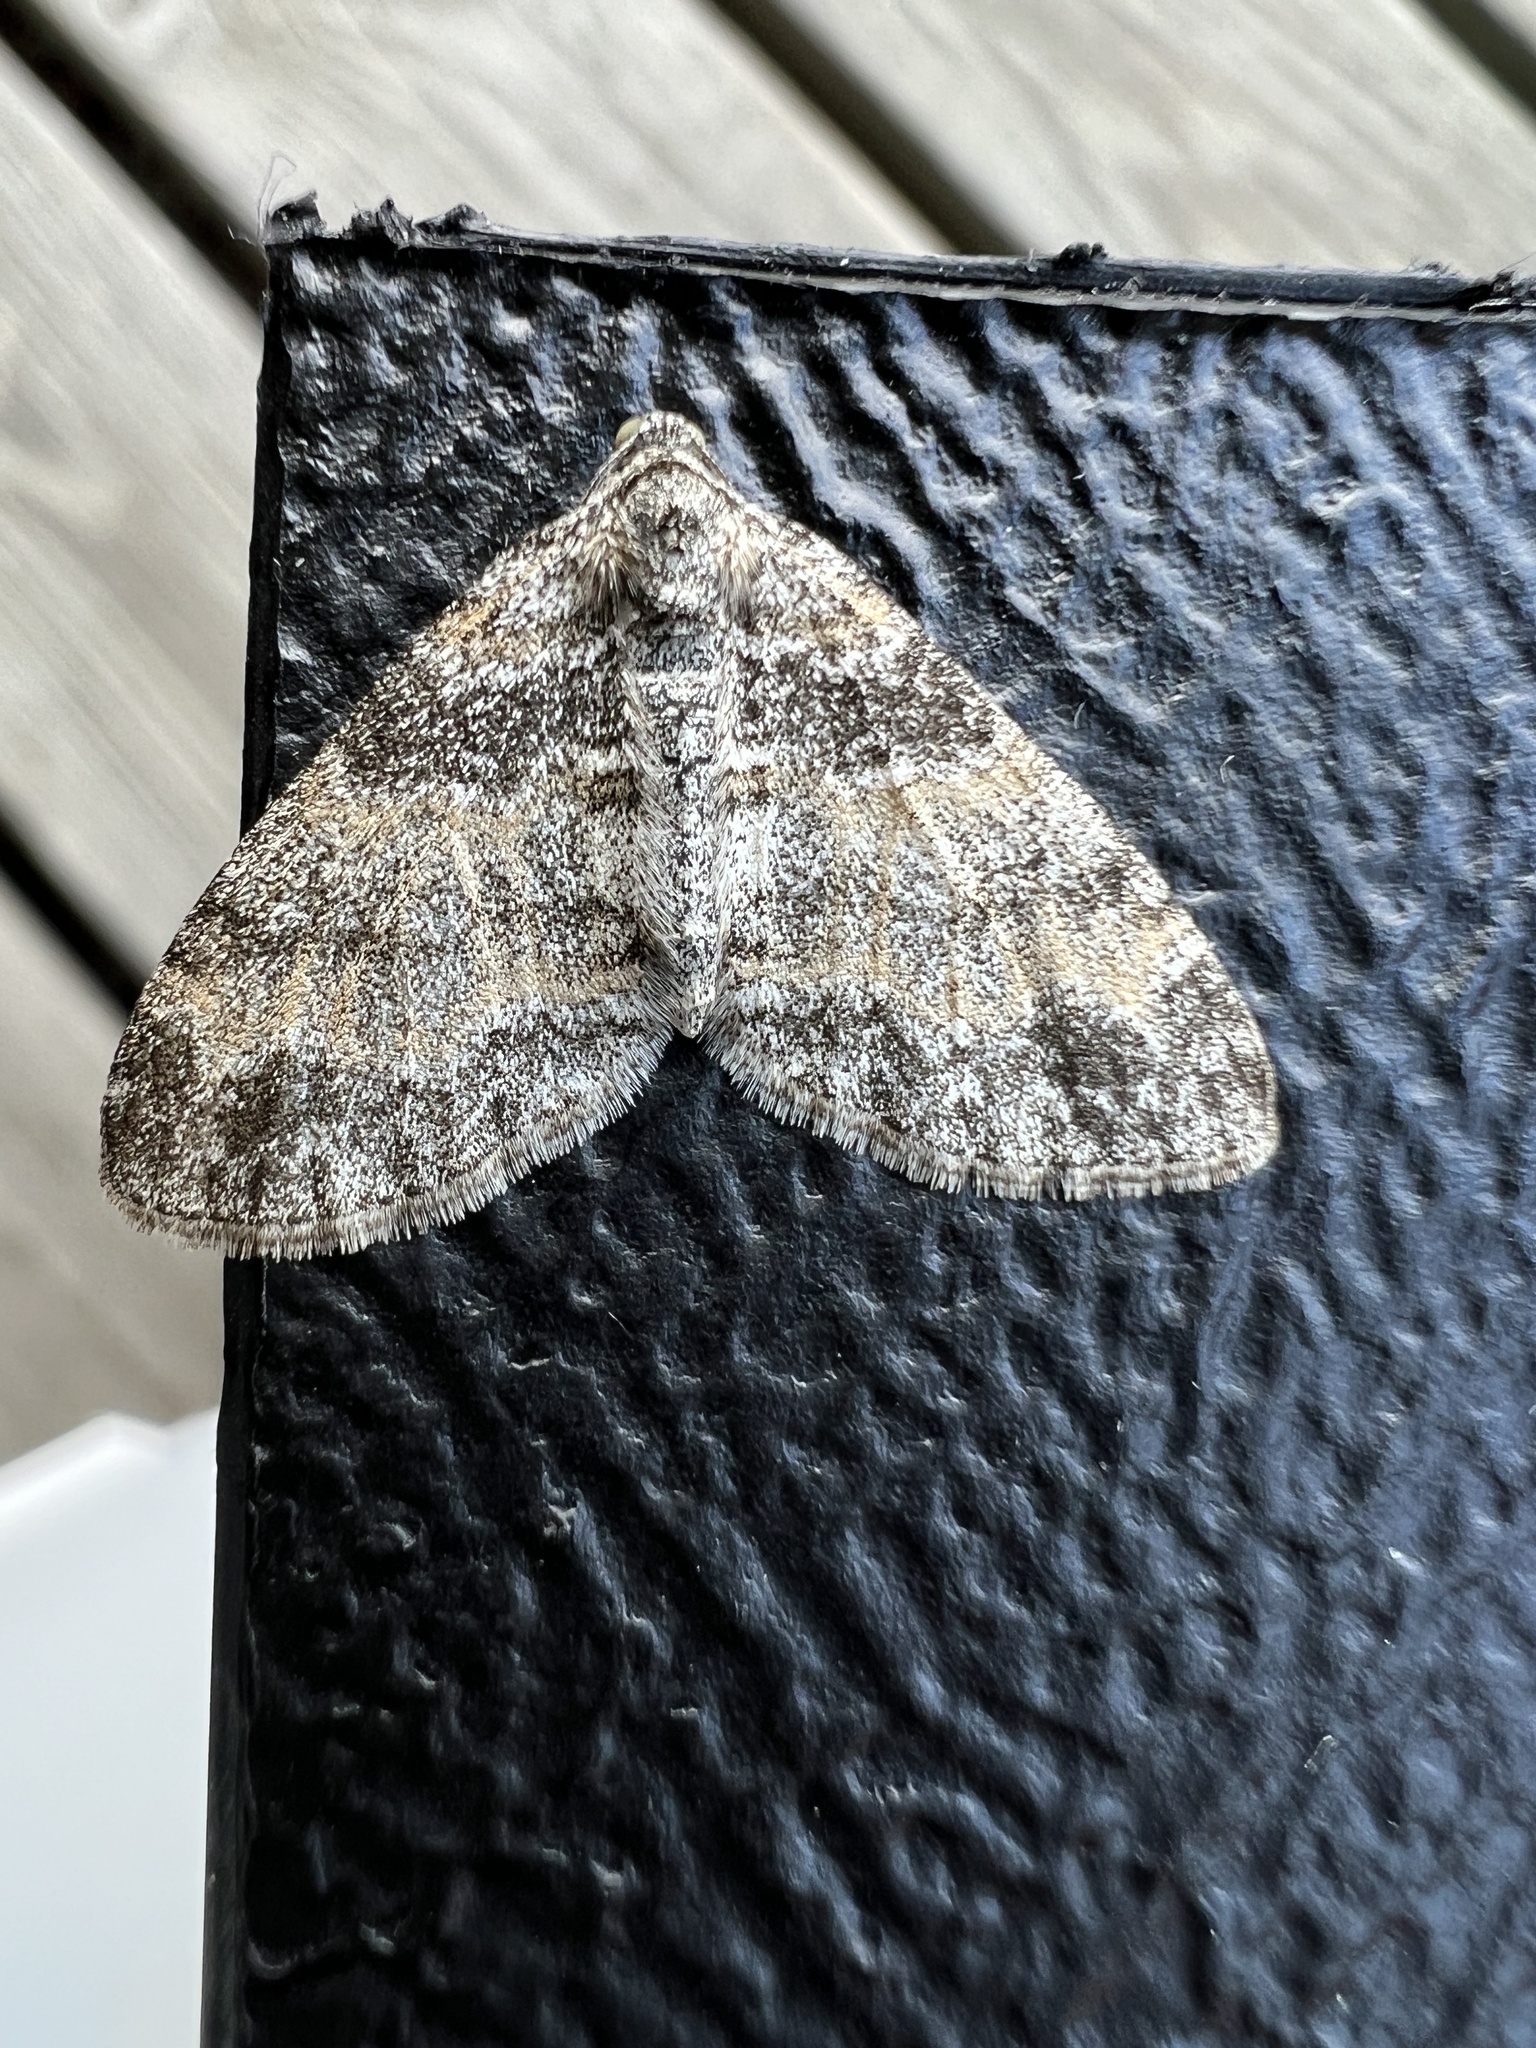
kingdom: Animalia
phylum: Arthropoda
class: Insecta
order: Lepidoptera
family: Geometridae
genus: Lobophora
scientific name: Lobophora halterata
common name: Seraphim
